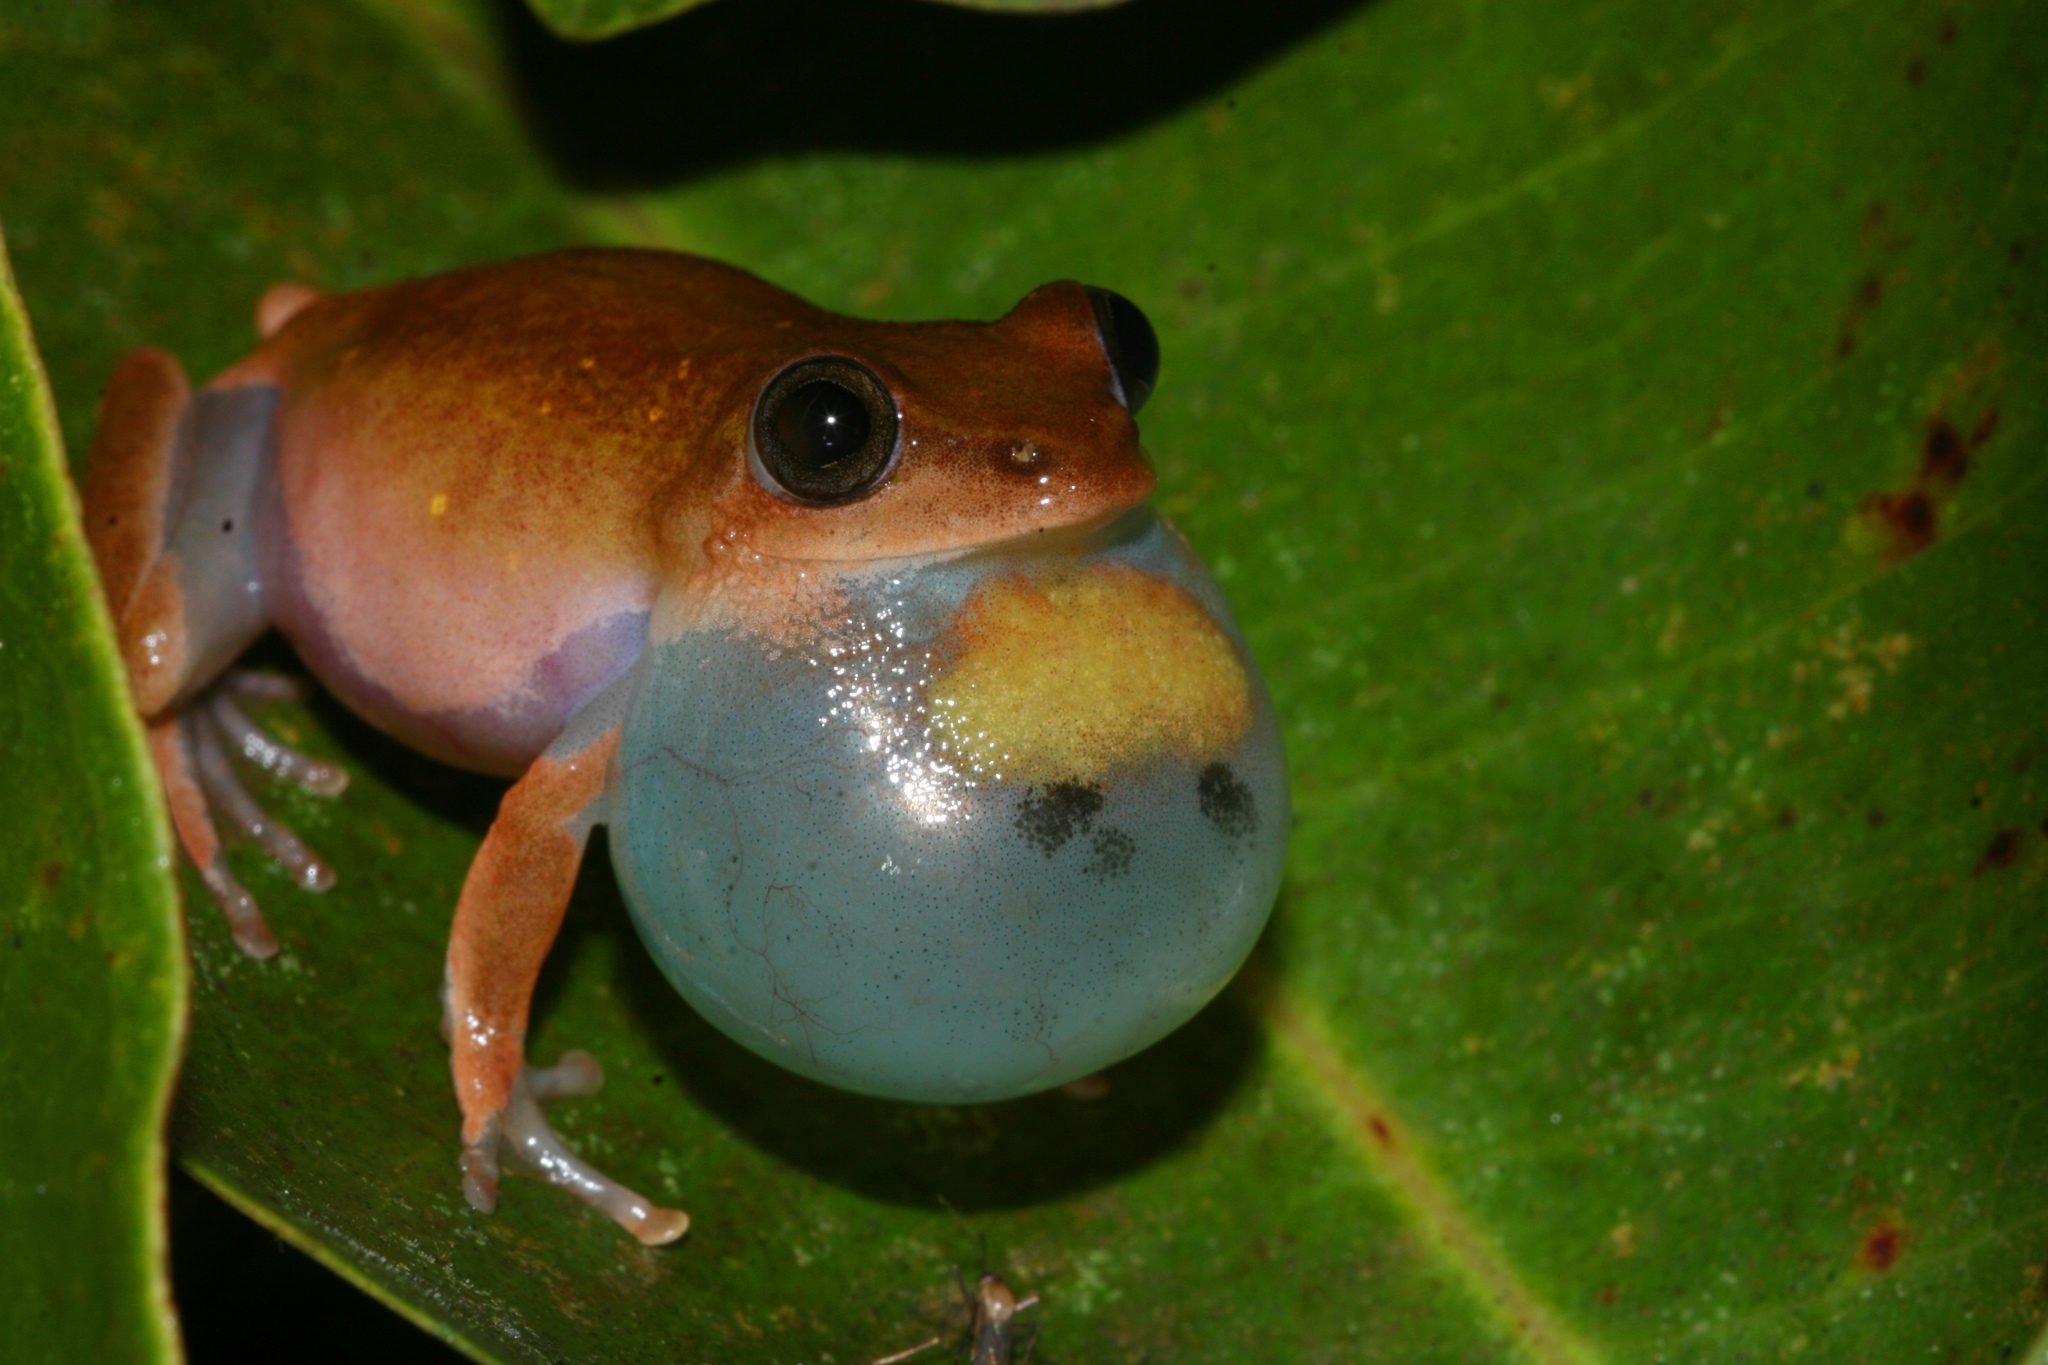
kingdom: Animalia
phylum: Chordata
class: Amphibia
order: Anura
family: Hyperoliidae
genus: Hyperolius
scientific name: Hyperolius phantasticus
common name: Chabanaud's reed frog
